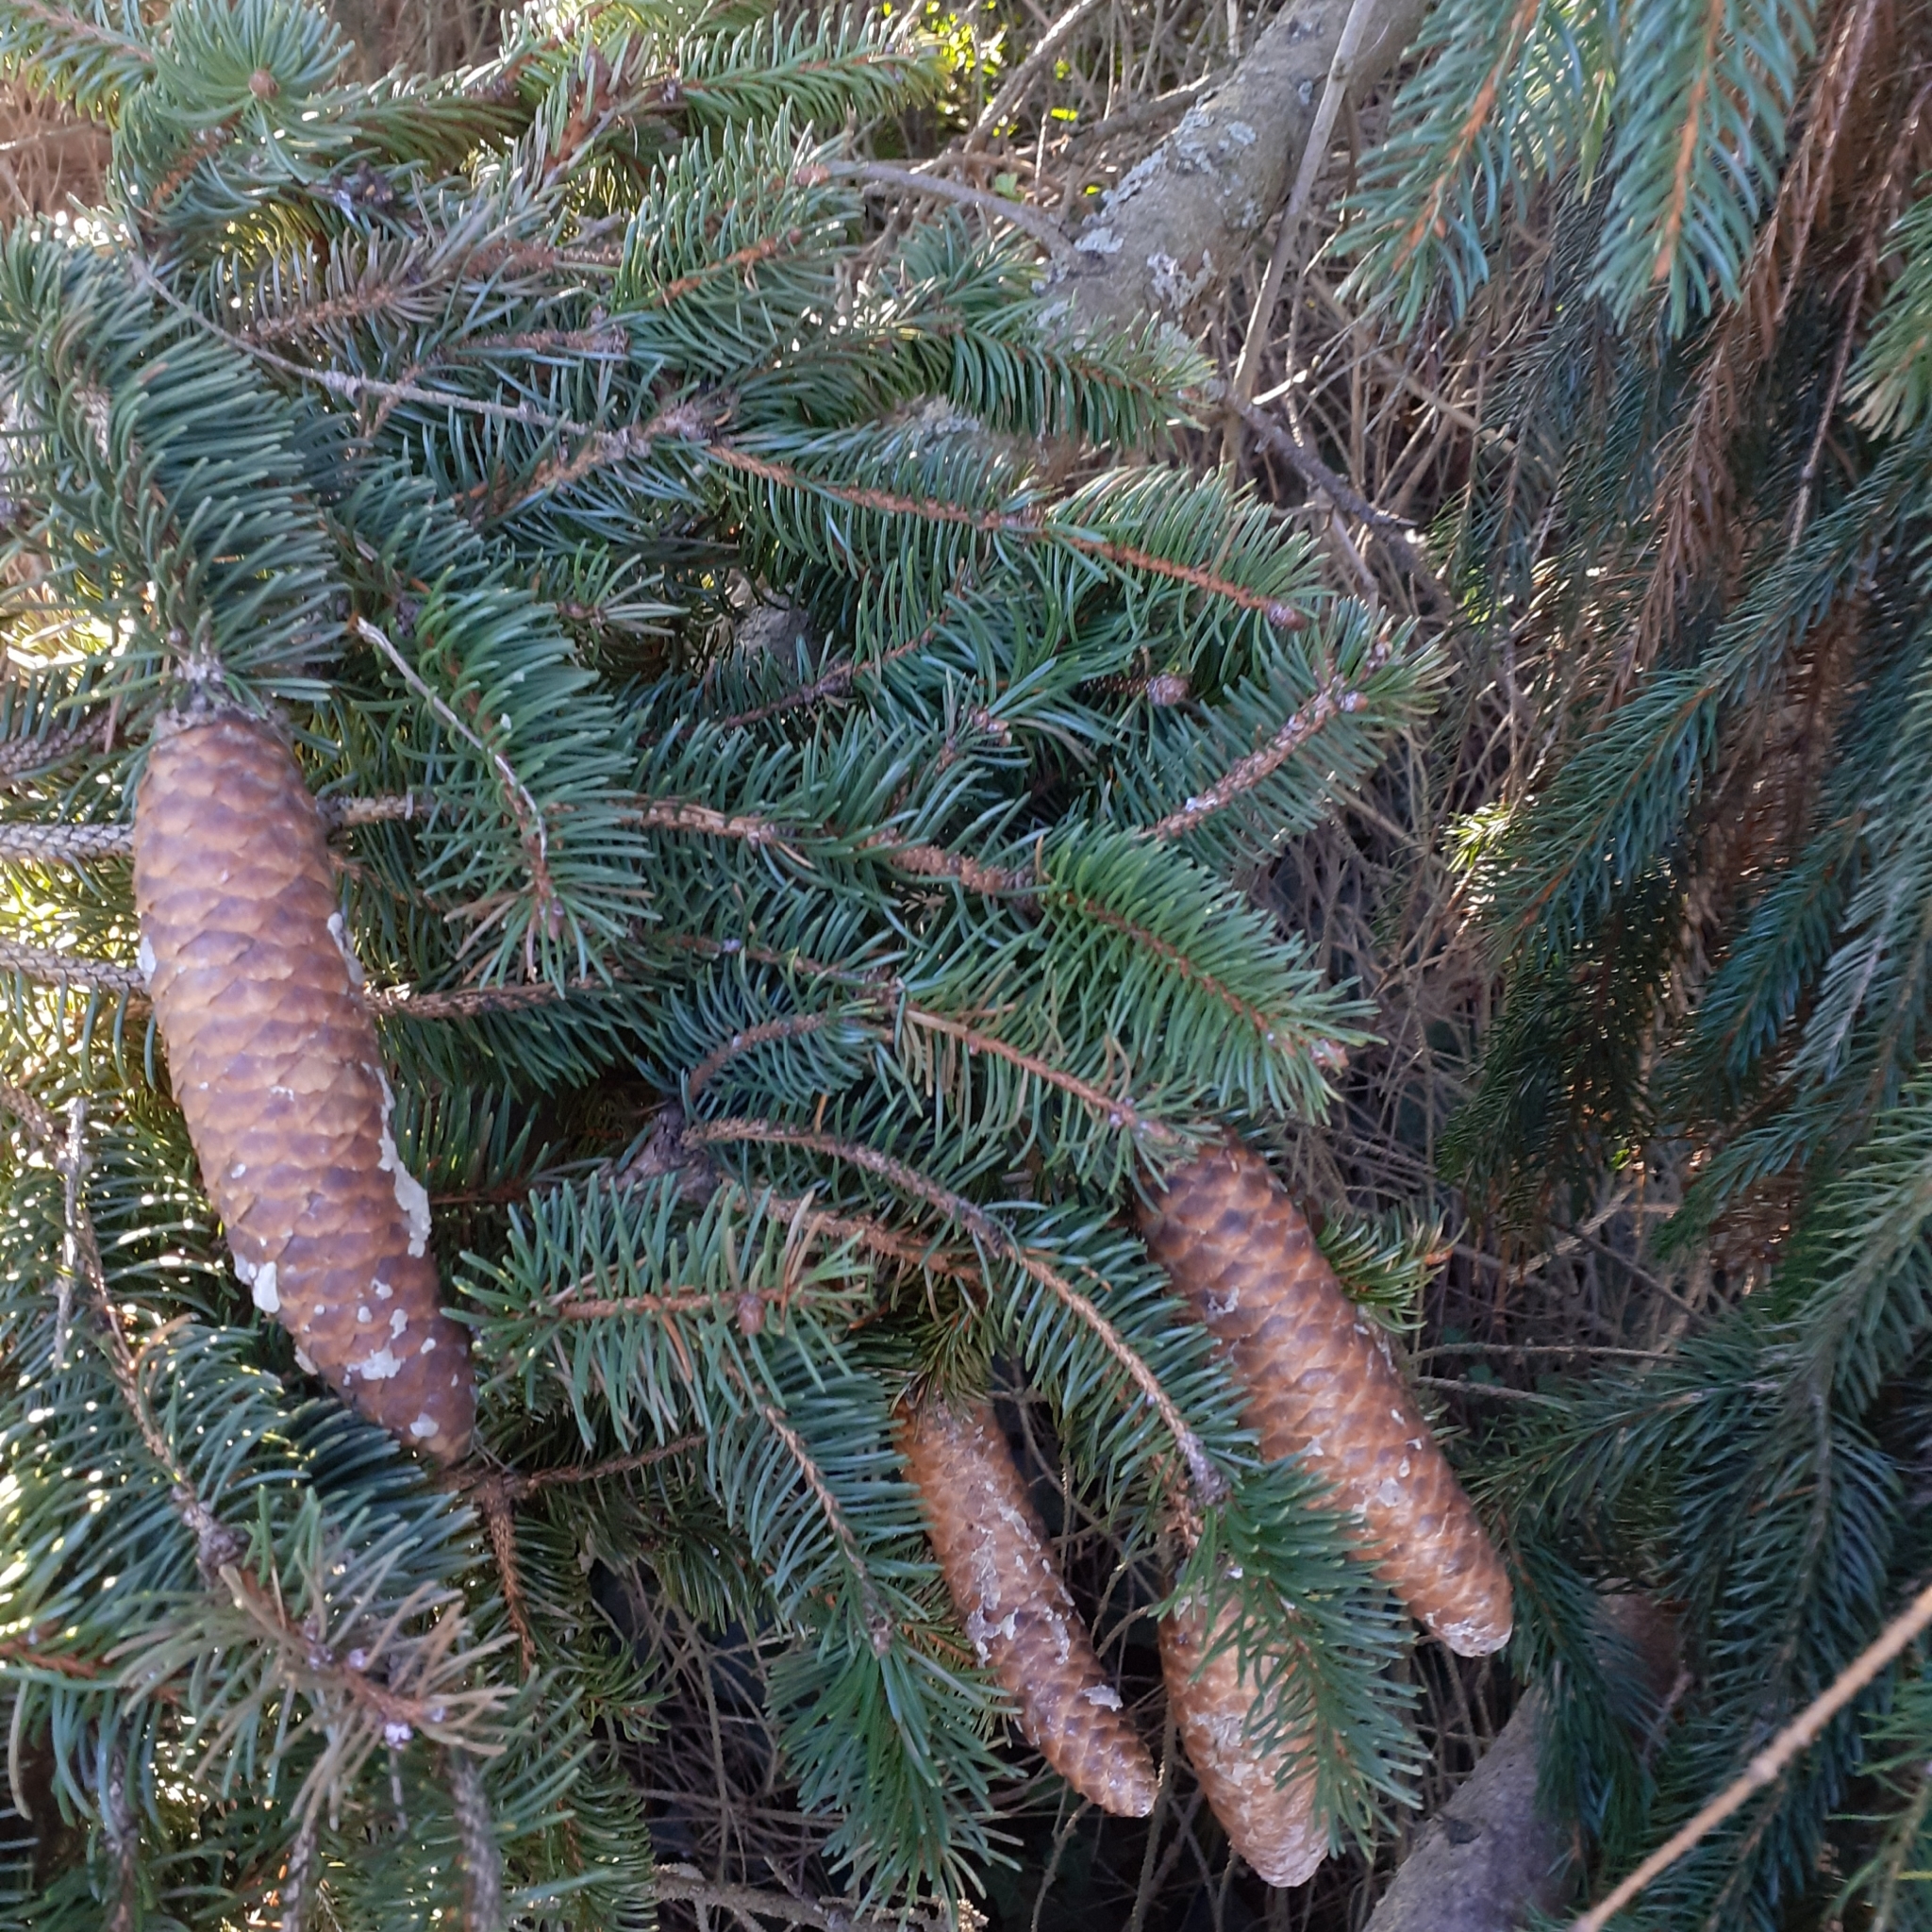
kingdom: Plantae
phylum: Tracheophyta
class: Pinopsida
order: Pinales
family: Pinaceae
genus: Picea
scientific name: Picea abies
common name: Norway spruce
